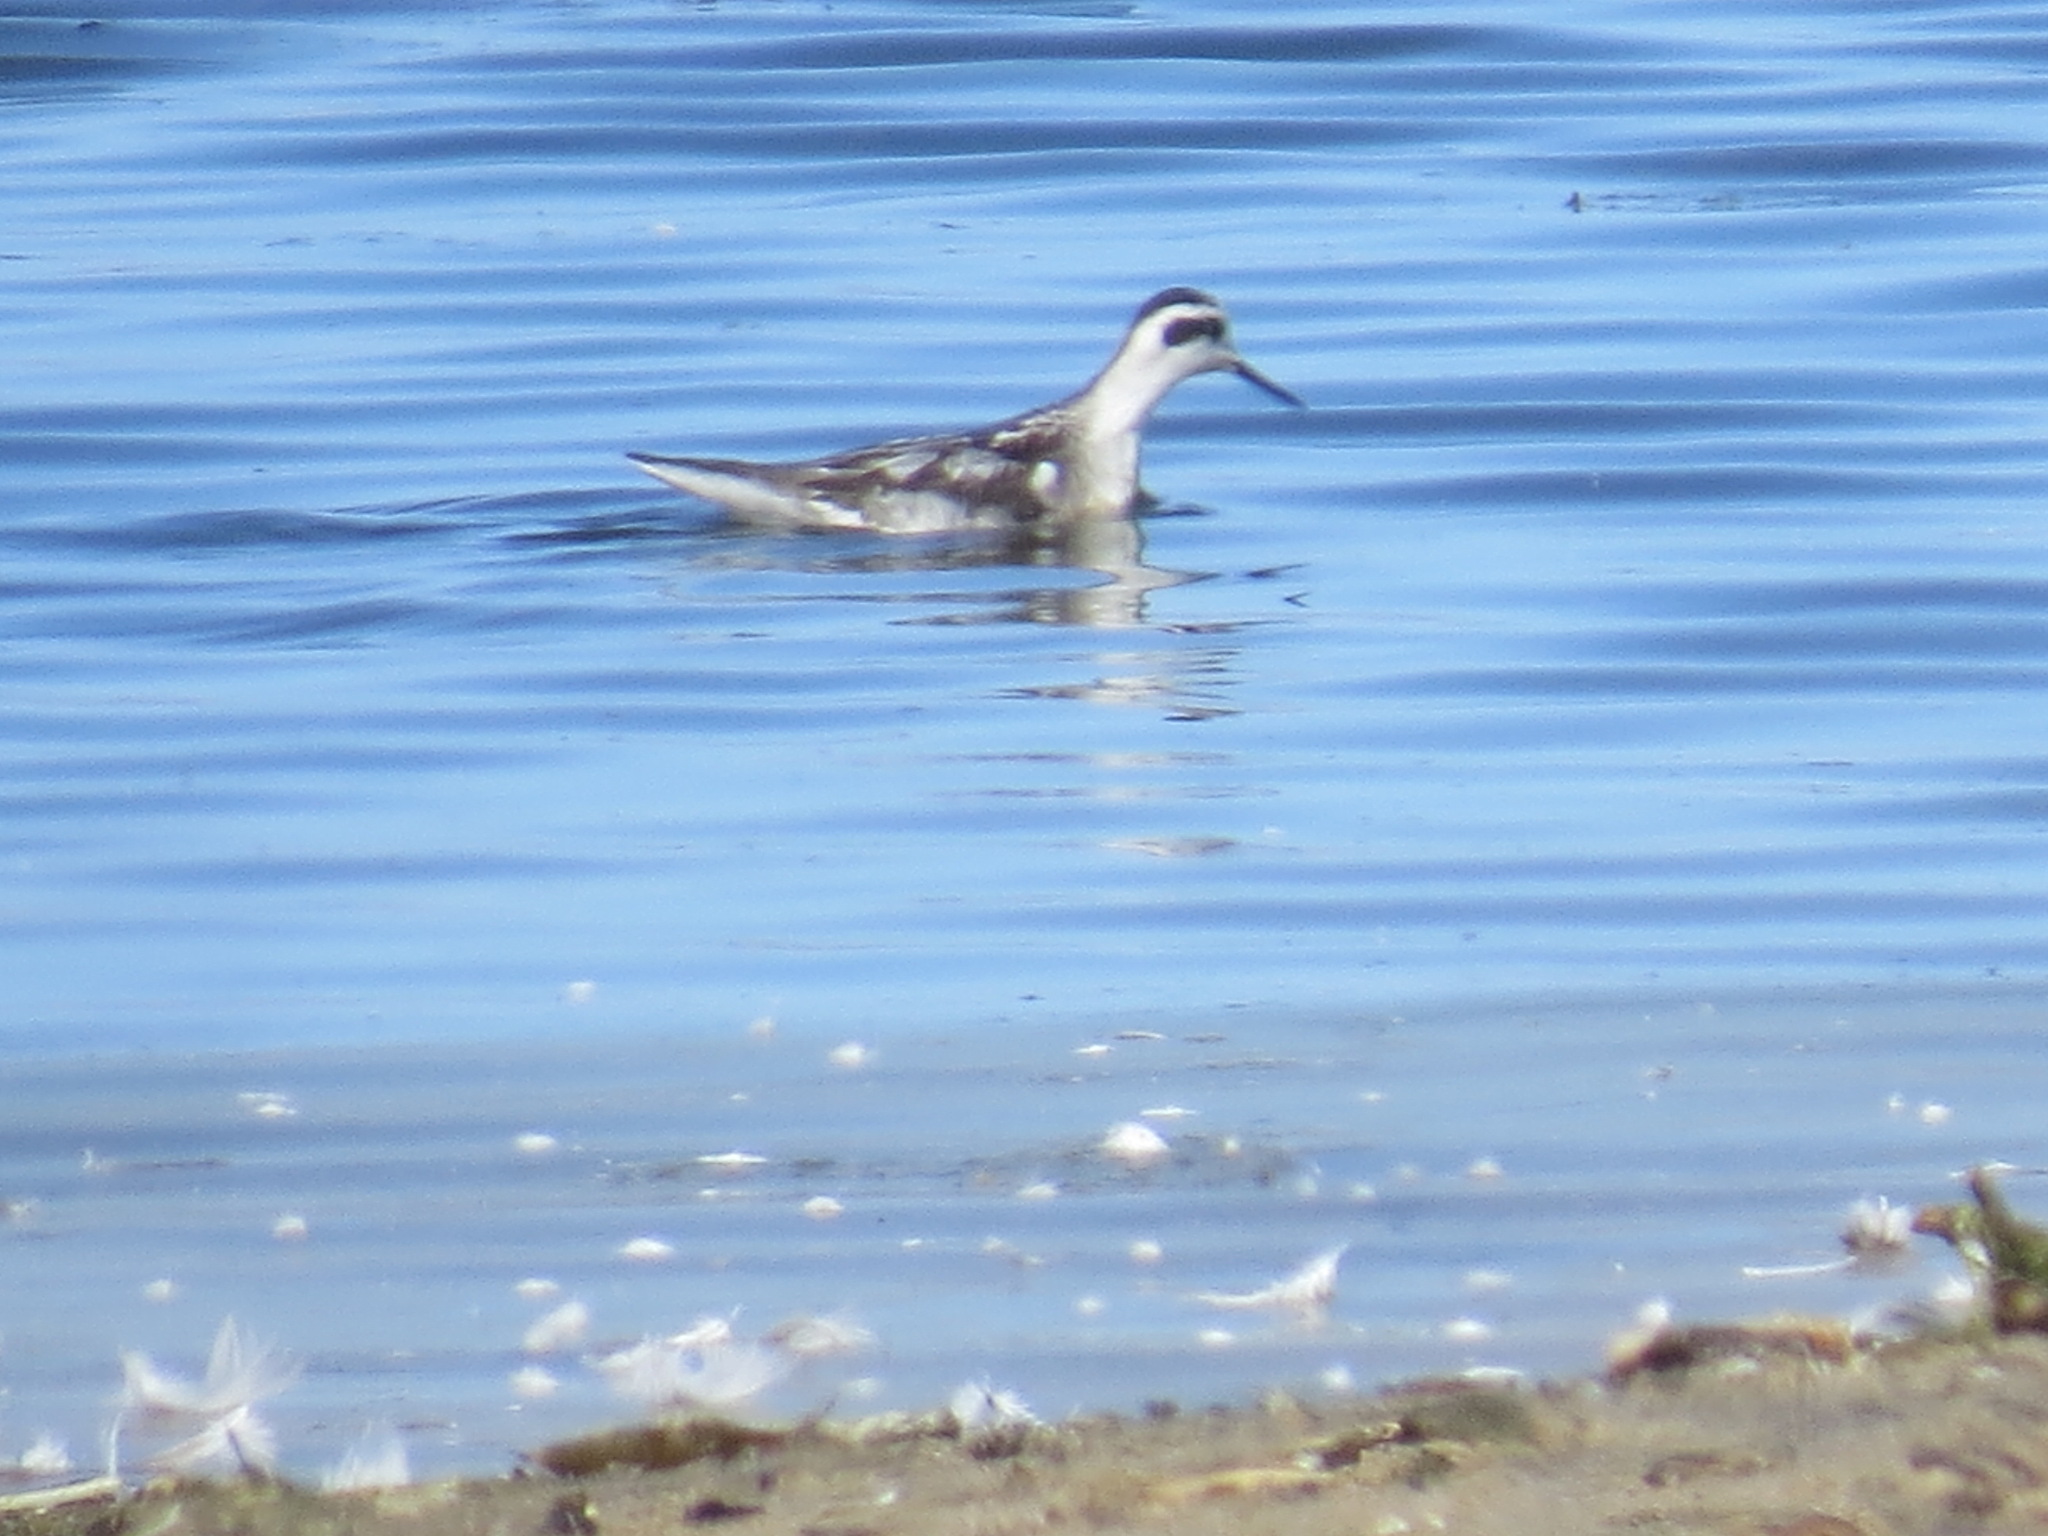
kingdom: Animalia
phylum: Chordata
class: Aves
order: Charadriiformes
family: Scolopacidae
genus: Phalaropus
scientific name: Phalaropus lobatus
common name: Red-necked phalarope
